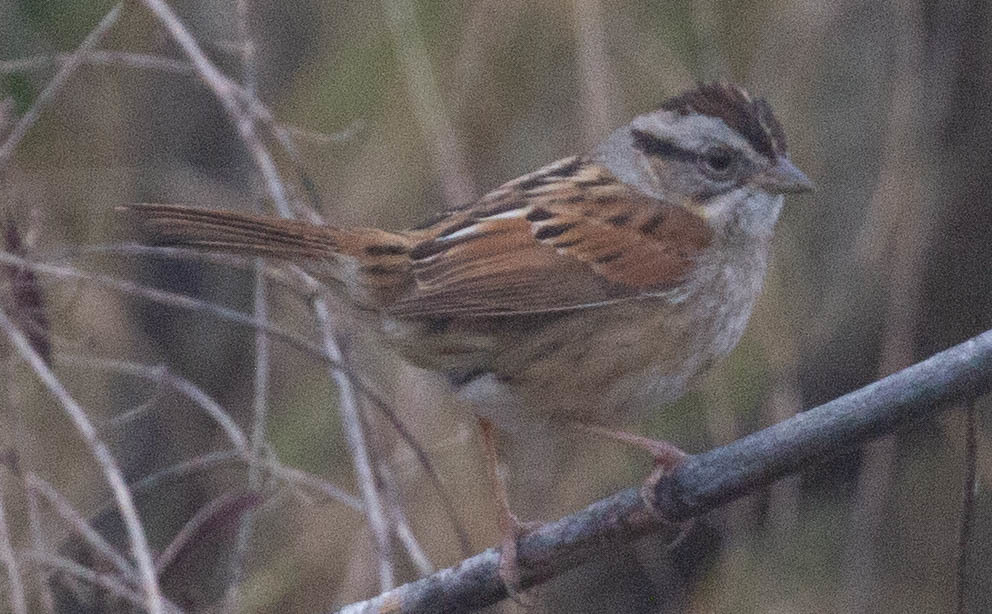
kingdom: Animalia
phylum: Chordata
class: Aves
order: Passeriformes
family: Passerellidae
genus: Melospiza
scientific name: Melospiza georgiana
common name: Swamp sparrow
